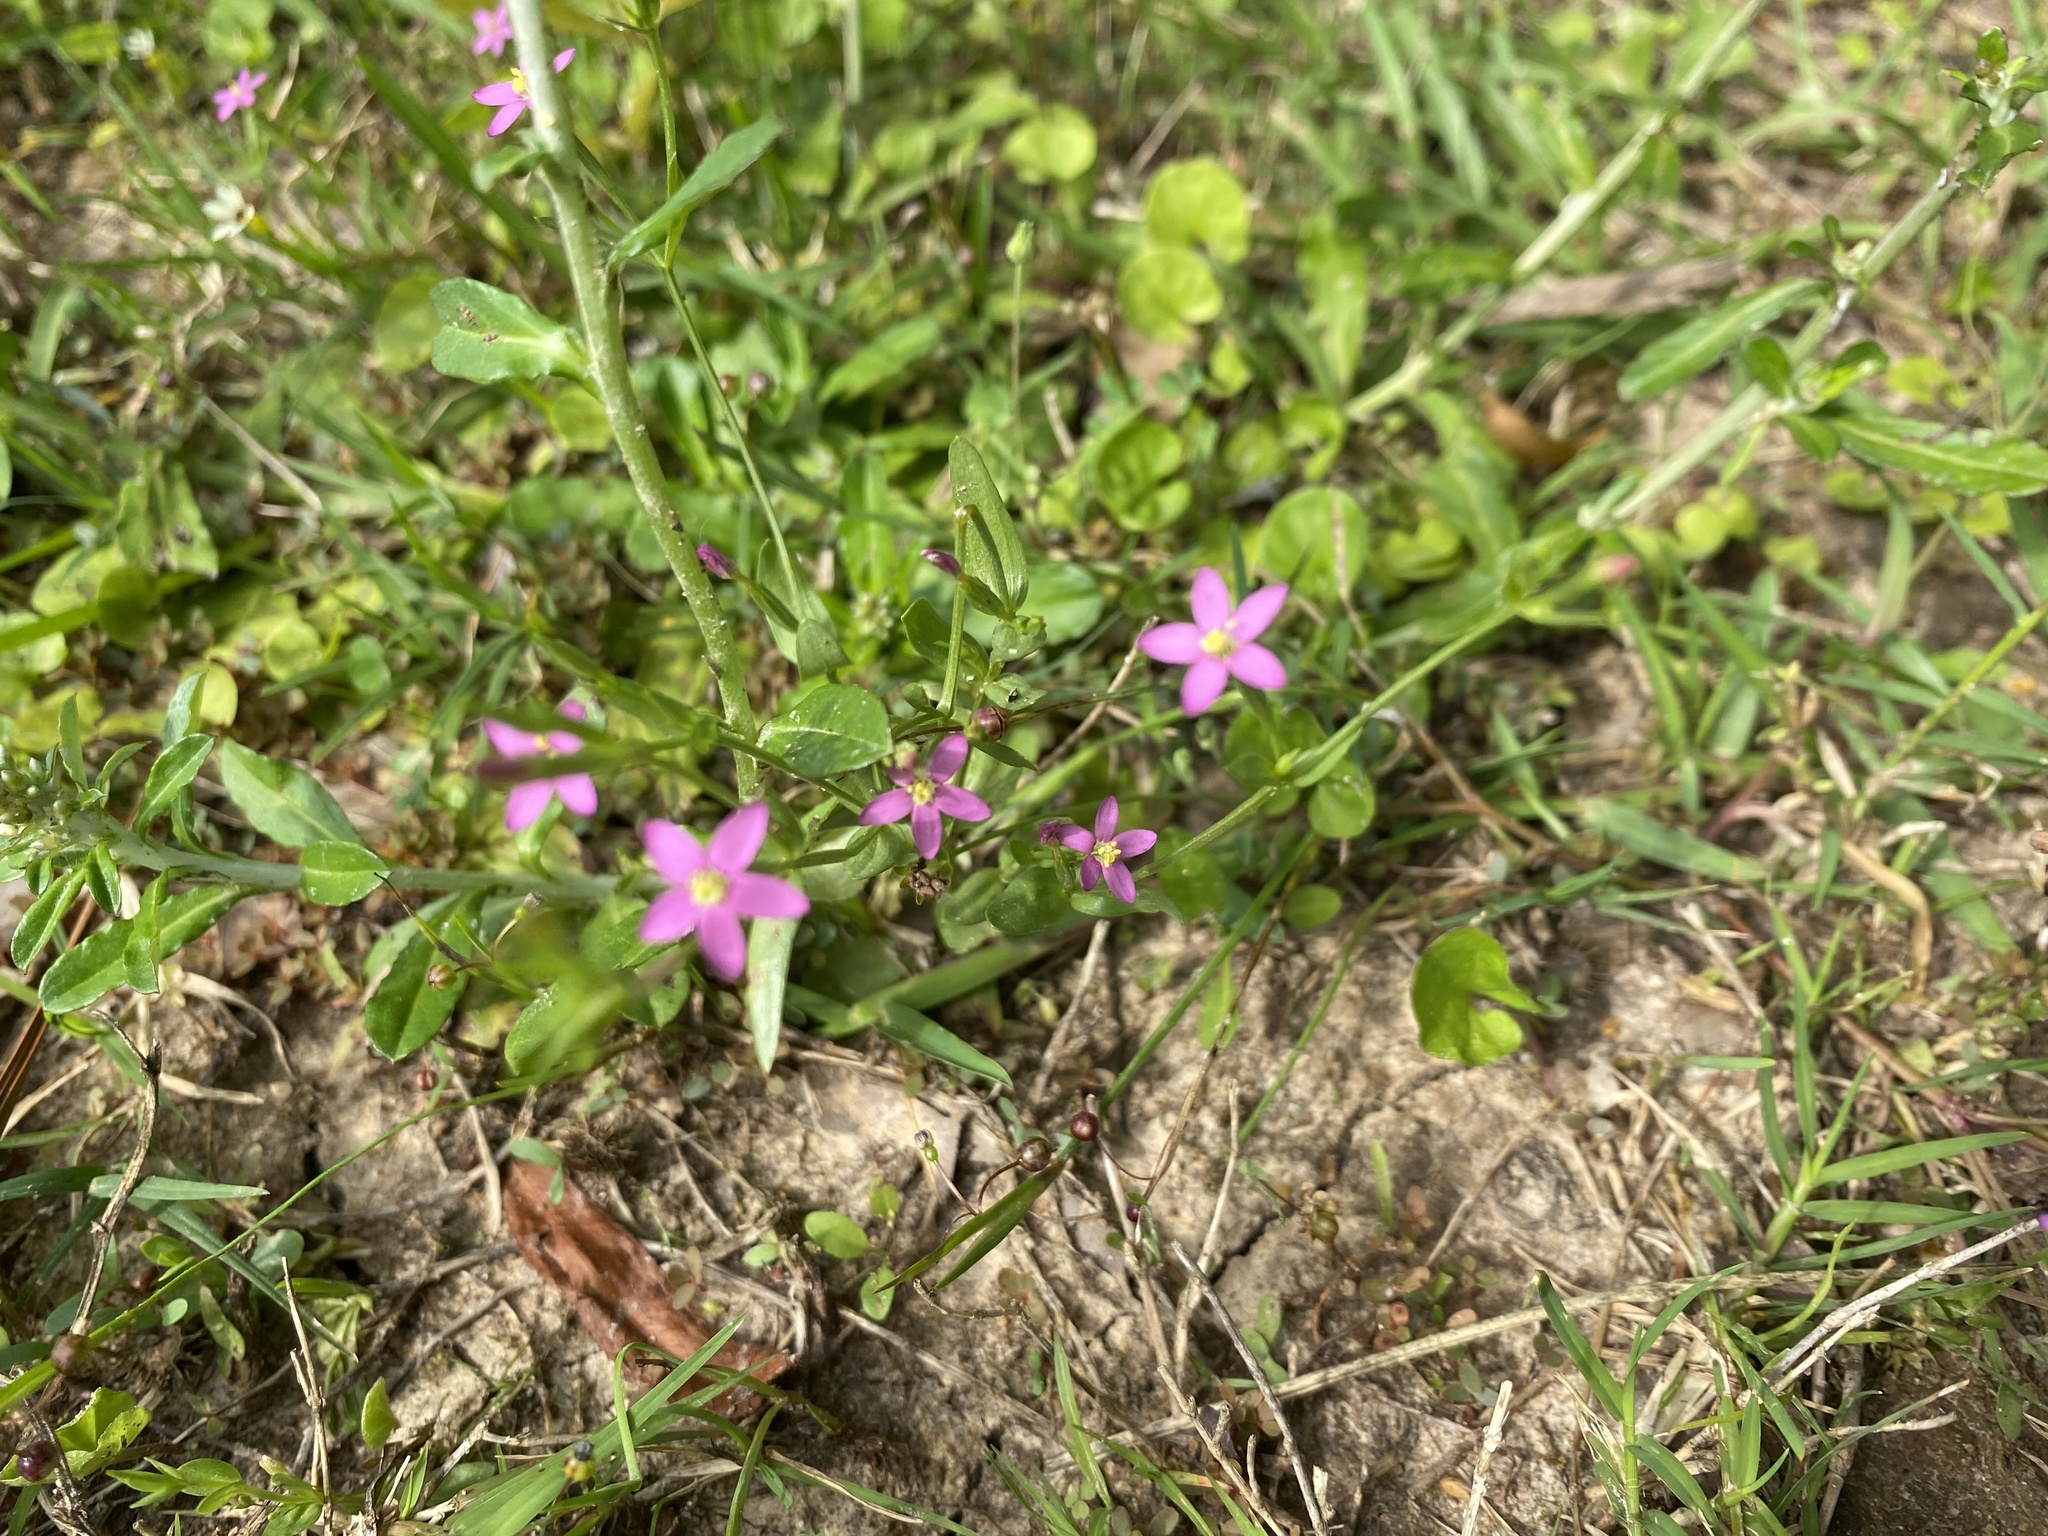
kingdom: Plantae
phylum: Tracheophyta
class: Magnoliopsida
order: Gentianales
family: Gentianaceae
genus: Centaurium
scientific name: Centaurium pulchellum
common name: Lesser centaury
